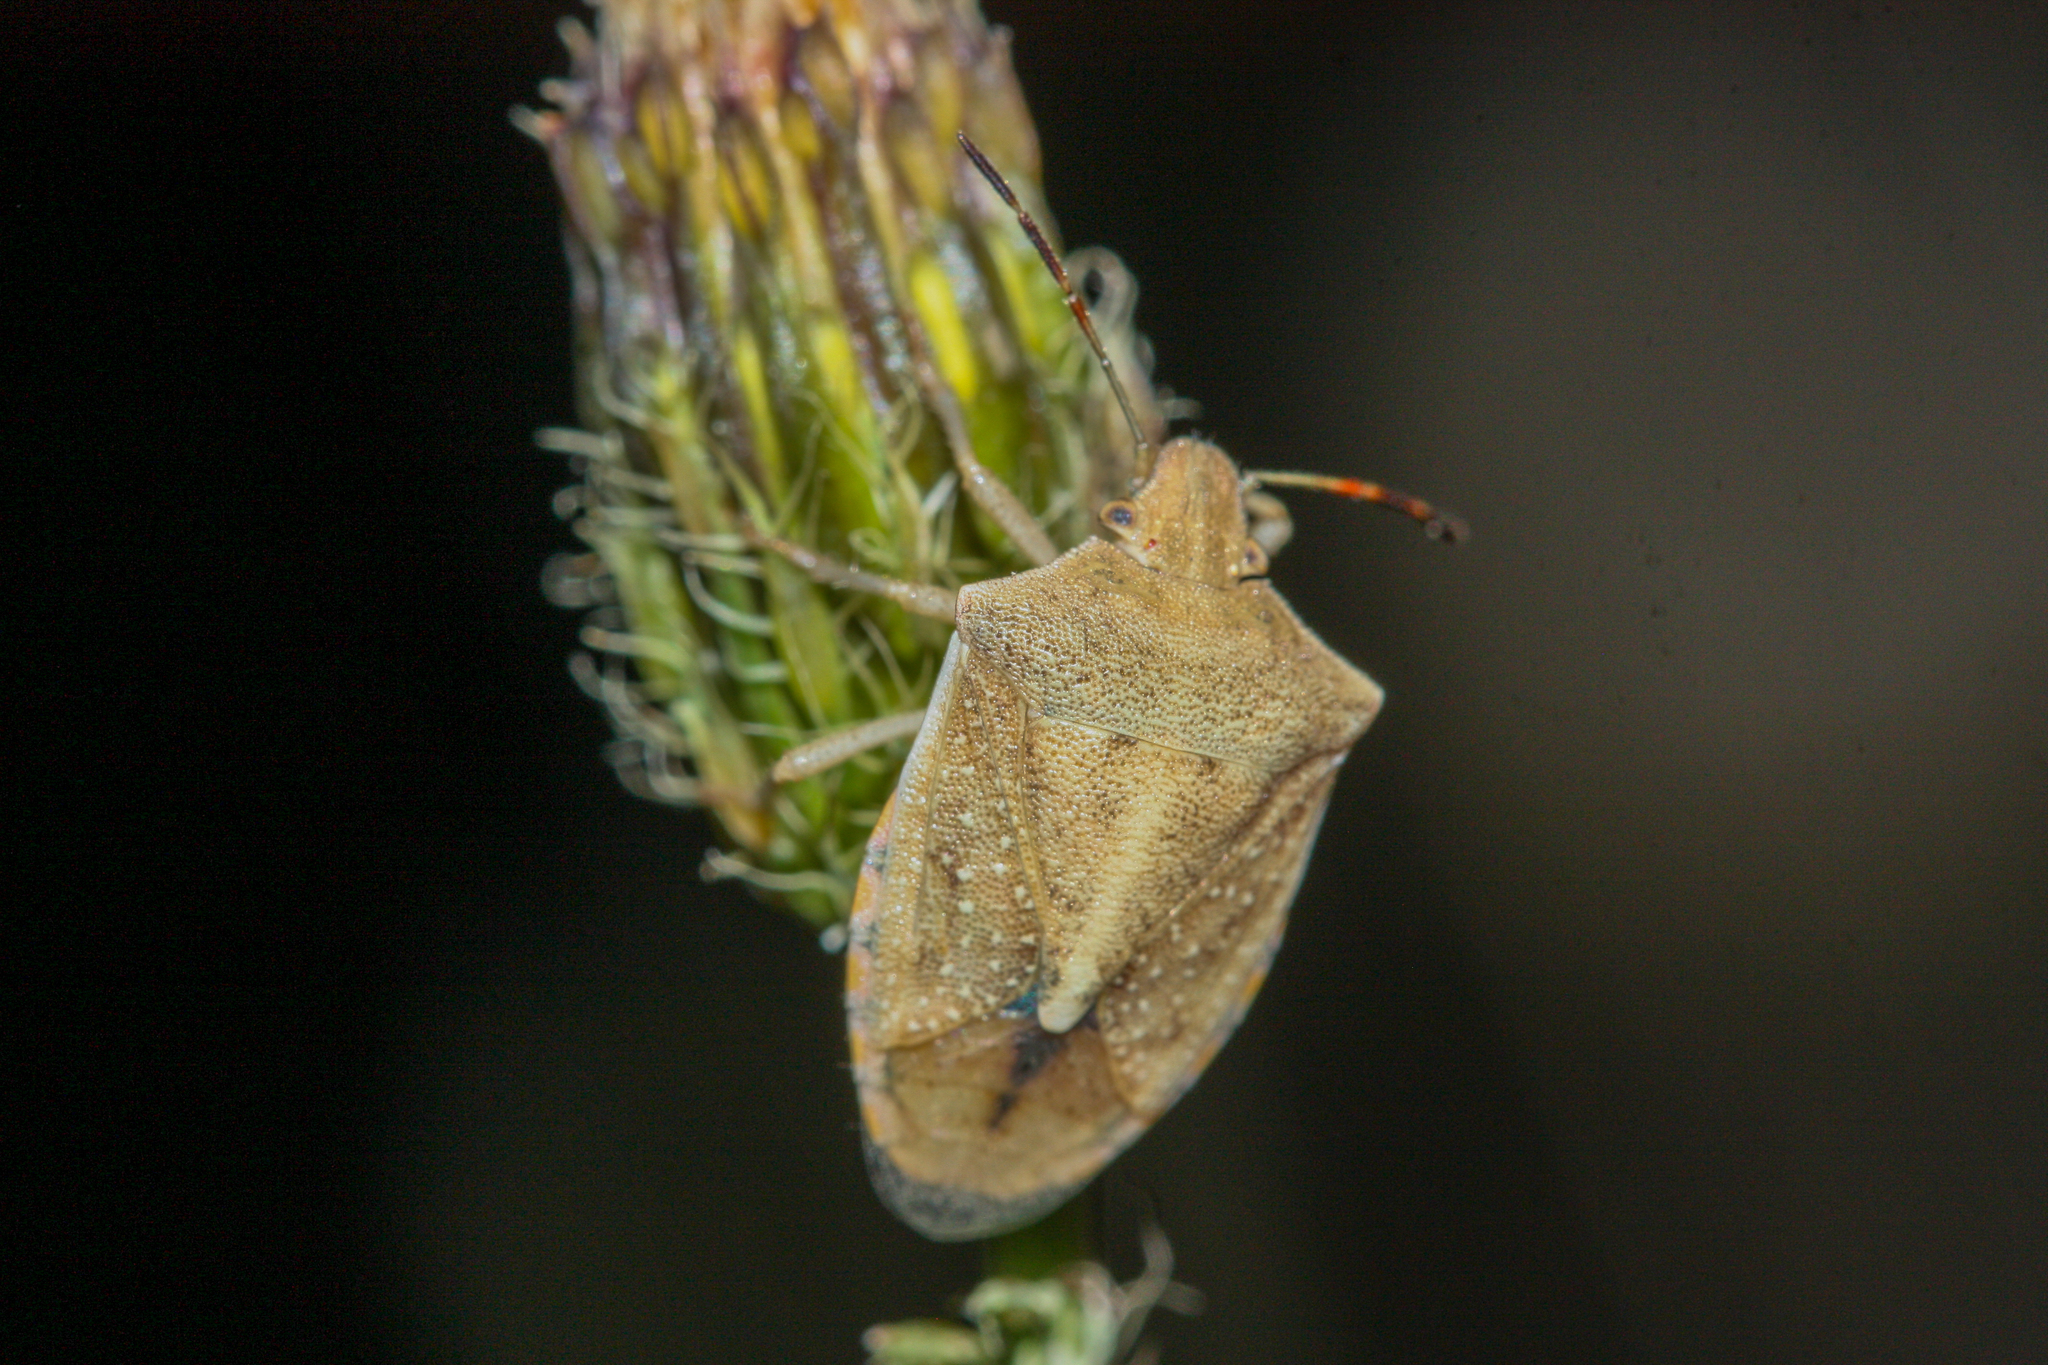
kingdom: Animalia
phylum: Arthropoda
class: Insecta
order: Hemiptera
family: Pentatomidae
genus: Thyanta
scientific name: Thyanta accerra
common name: Stink bug
